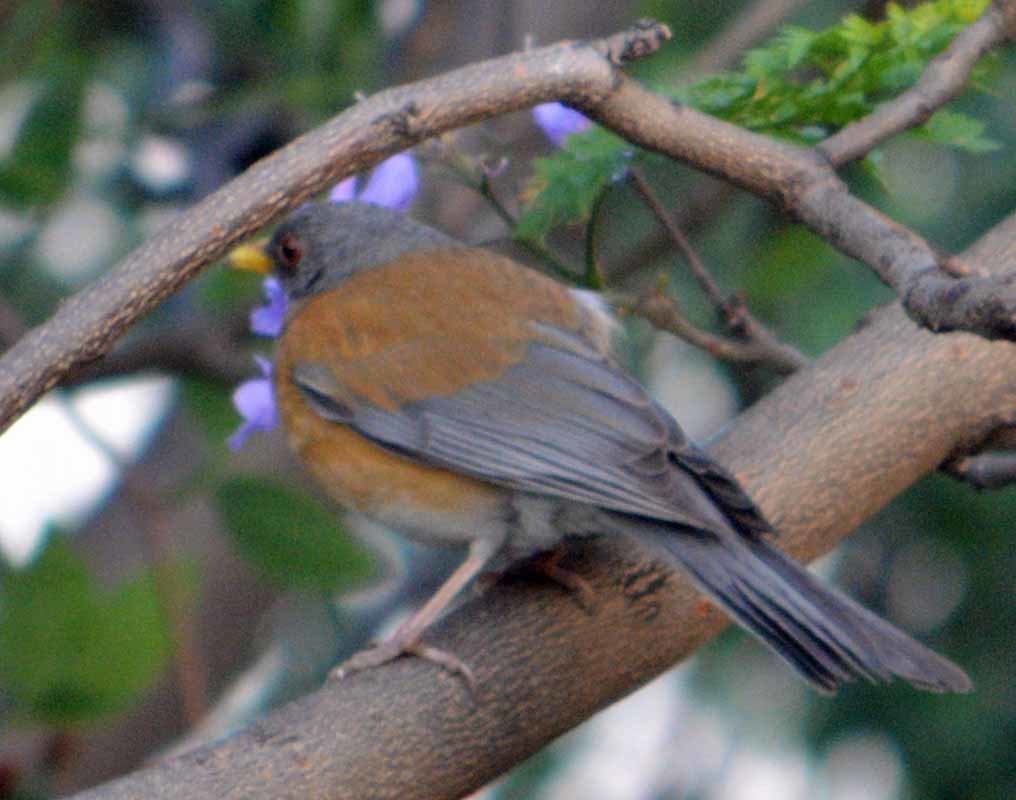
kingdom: Animalia
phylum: Chordata
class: Aves
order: Passeriformes
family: Turdidae
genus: Turdus
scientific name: Turdus rufopalliatus
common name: Rufous-backed robin
